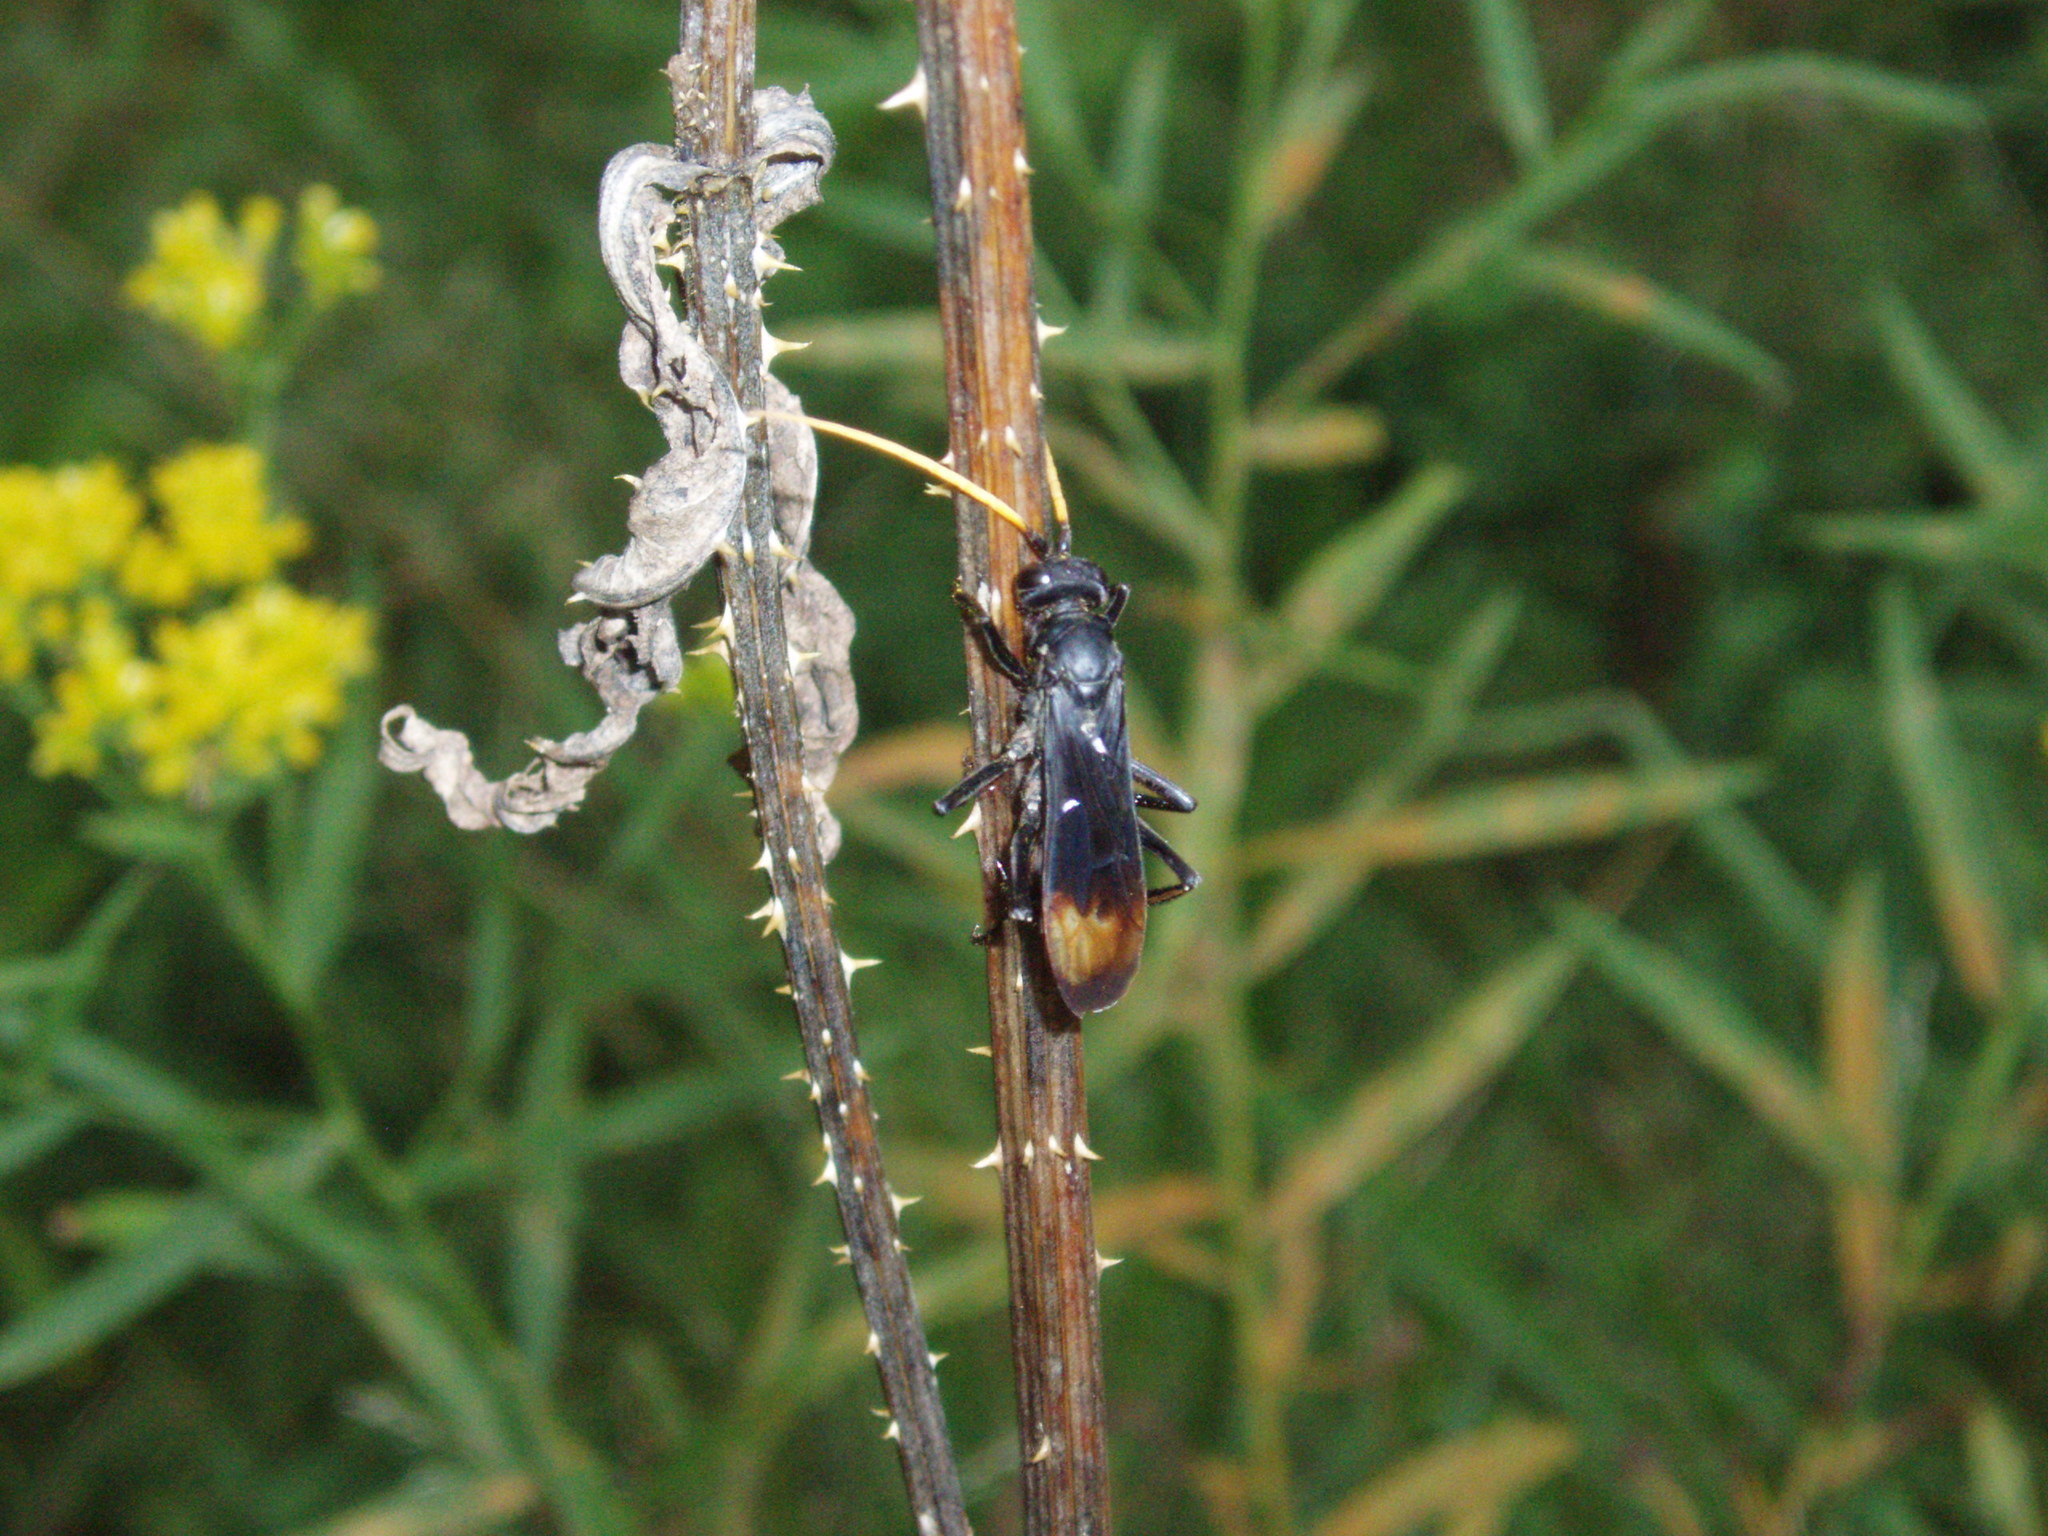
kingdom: Animalia
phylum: Arthropoda
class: Insecta
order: Hymenoptera
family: Pompilidae
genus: Entypus
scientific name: Entypus unifasciatus
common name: Eastern tawny-horned spider wasp
